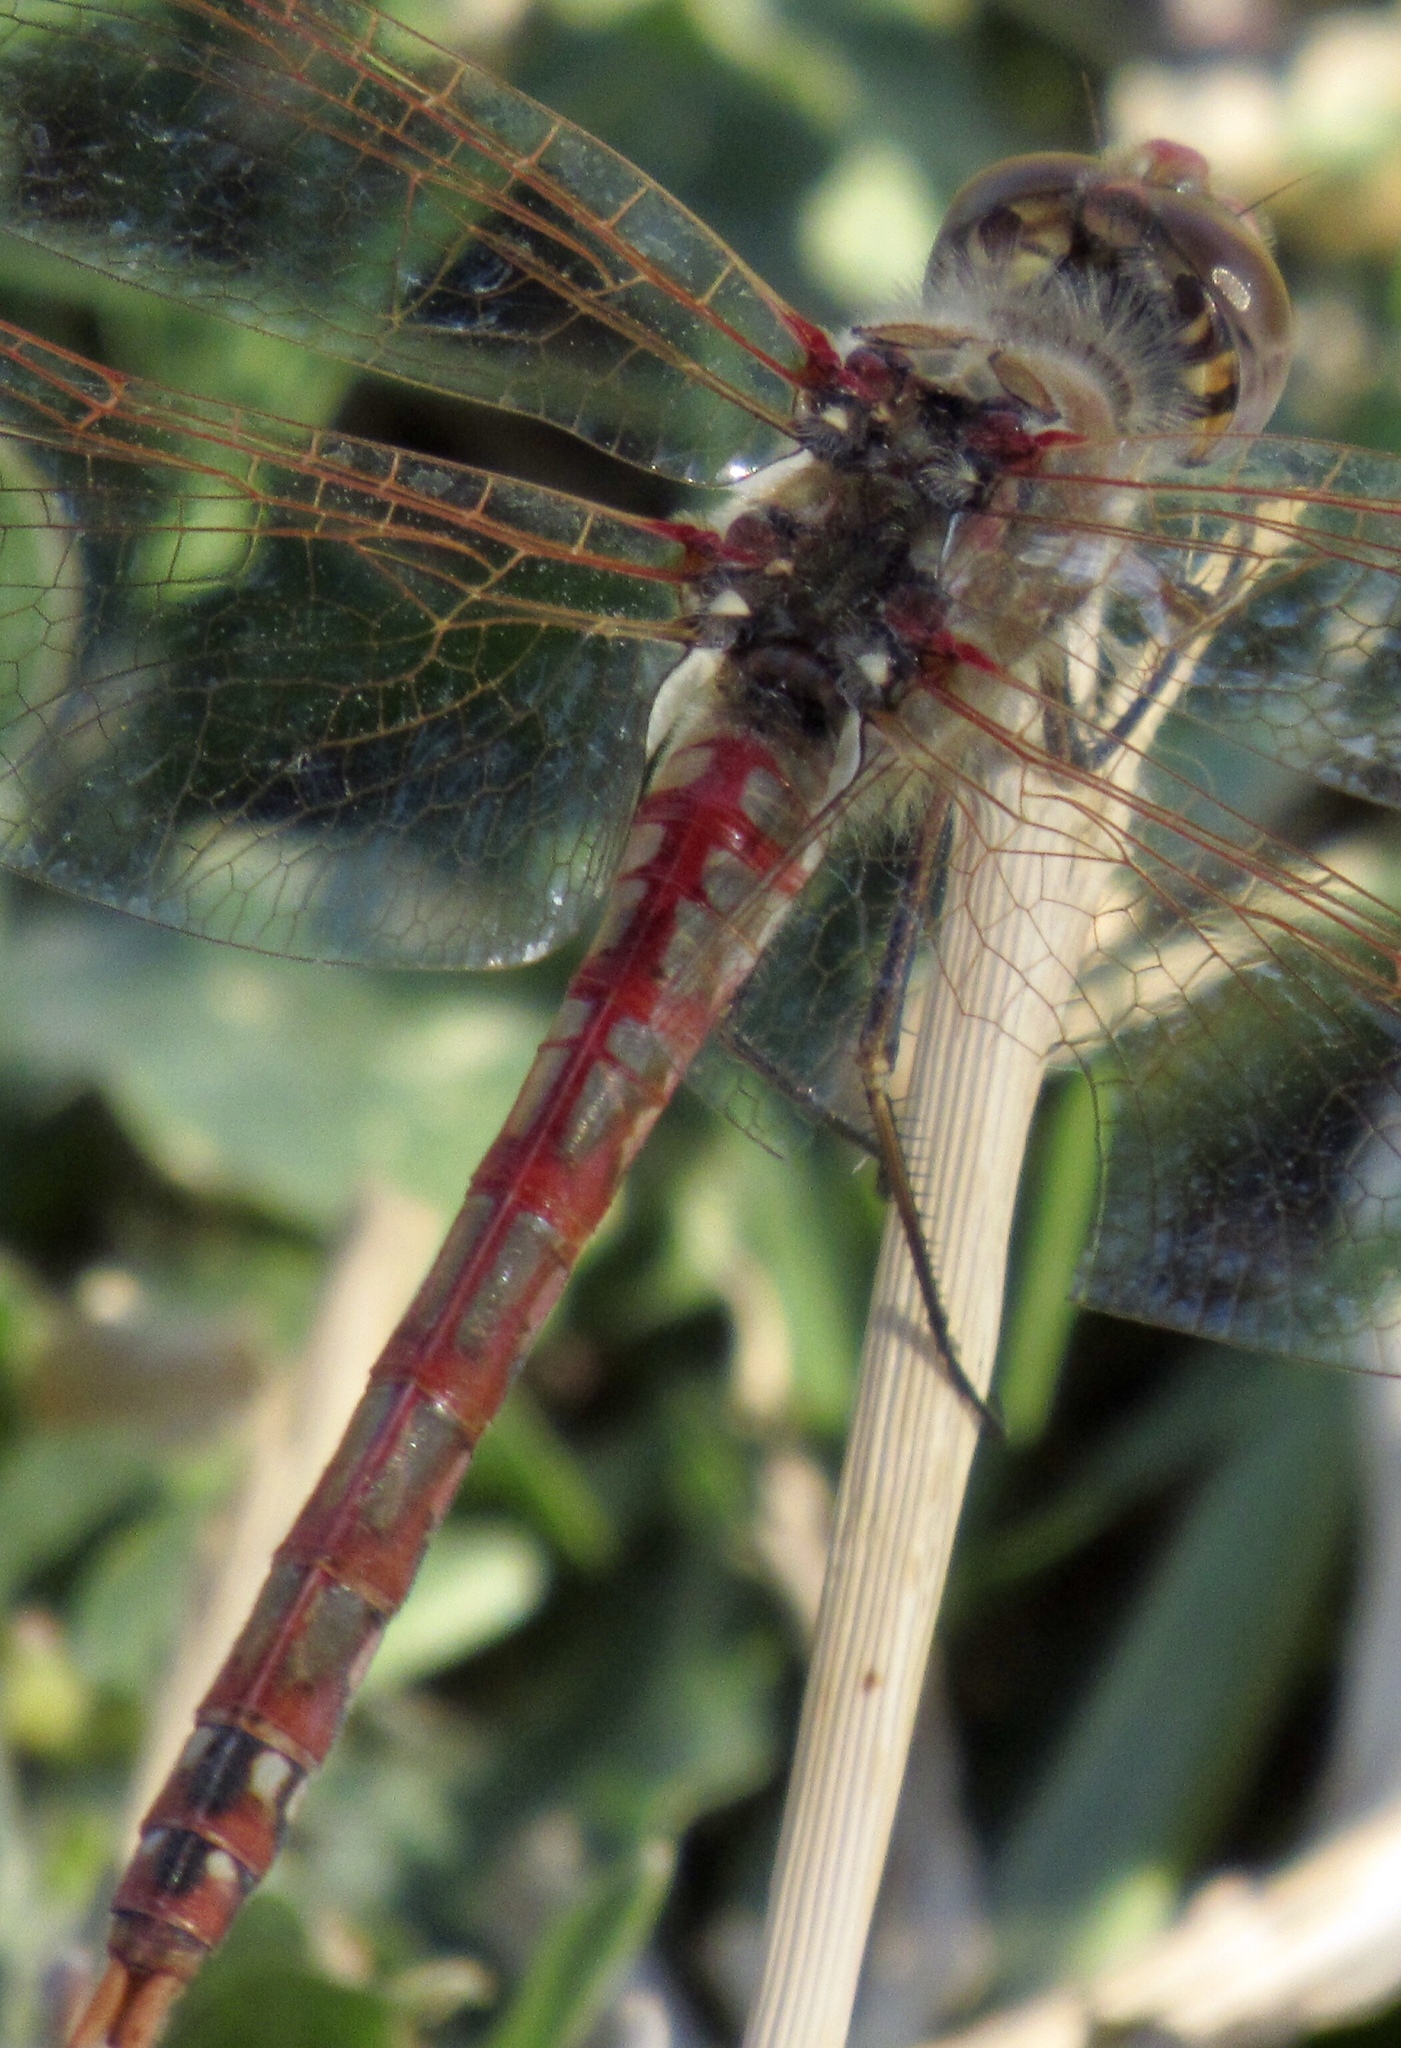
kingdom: Animalia
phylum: Arthropoda
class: Insecta
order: Odonata
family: Libellulidae
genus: Sympetrum
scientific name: Sympetrum corruptum
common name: Variegated meadowhawk
